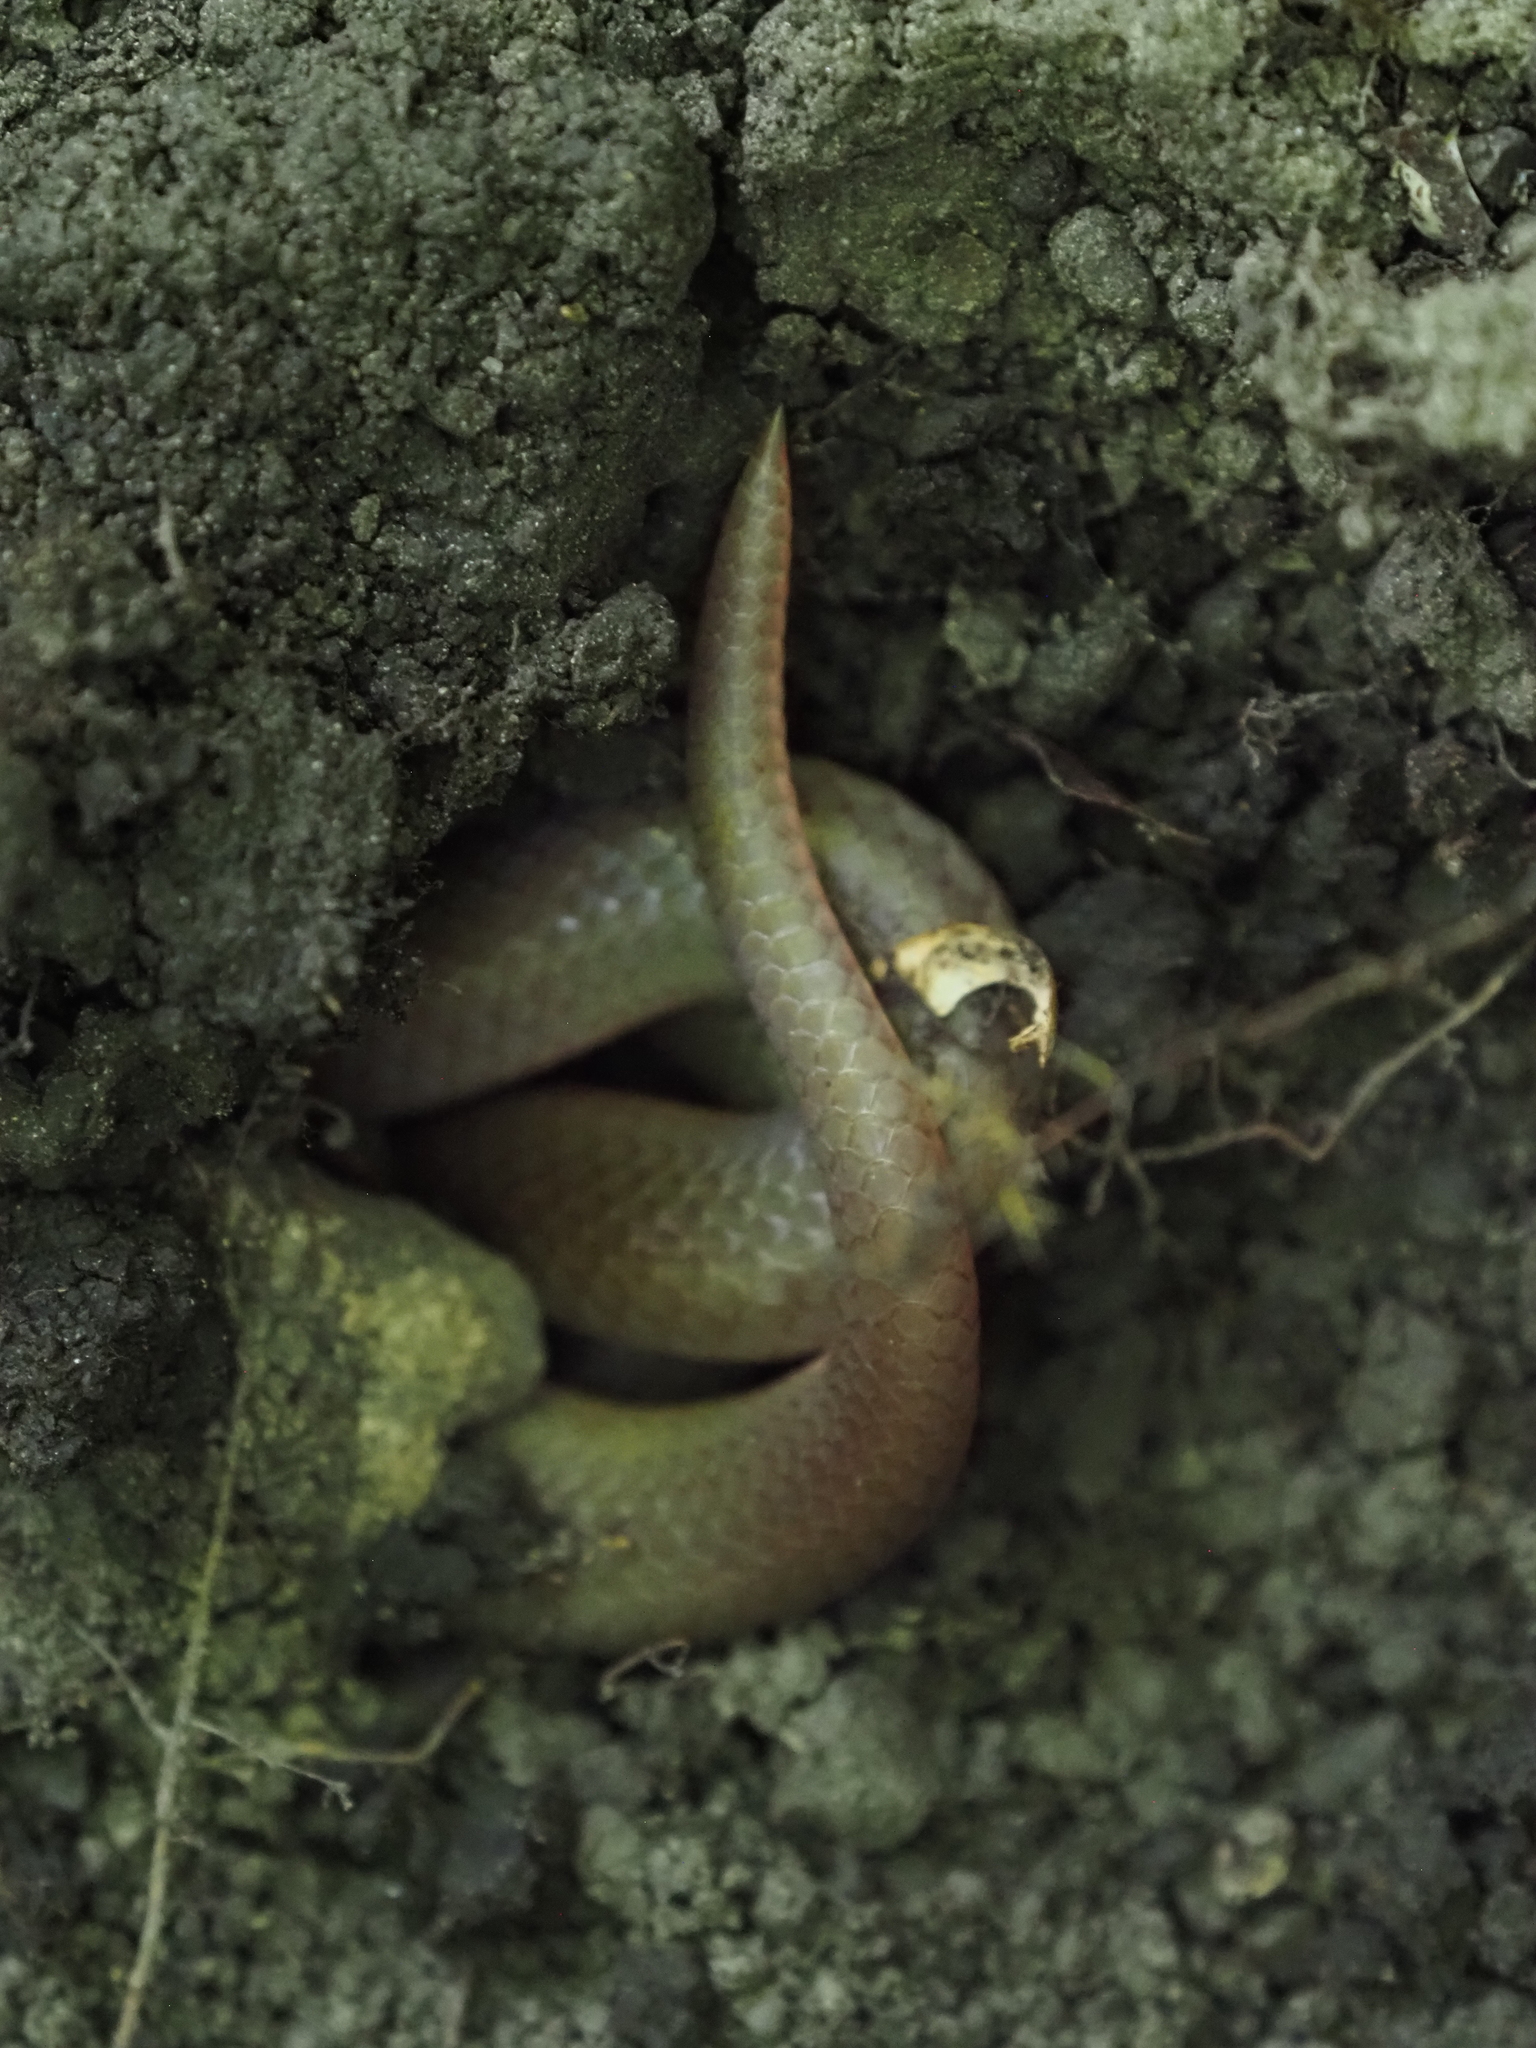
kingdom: Animalia
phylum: Chordata
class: Squamata
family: Colubridae
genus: Carphophis
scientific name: Carphophis amoenus
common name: Eastern worm snake
